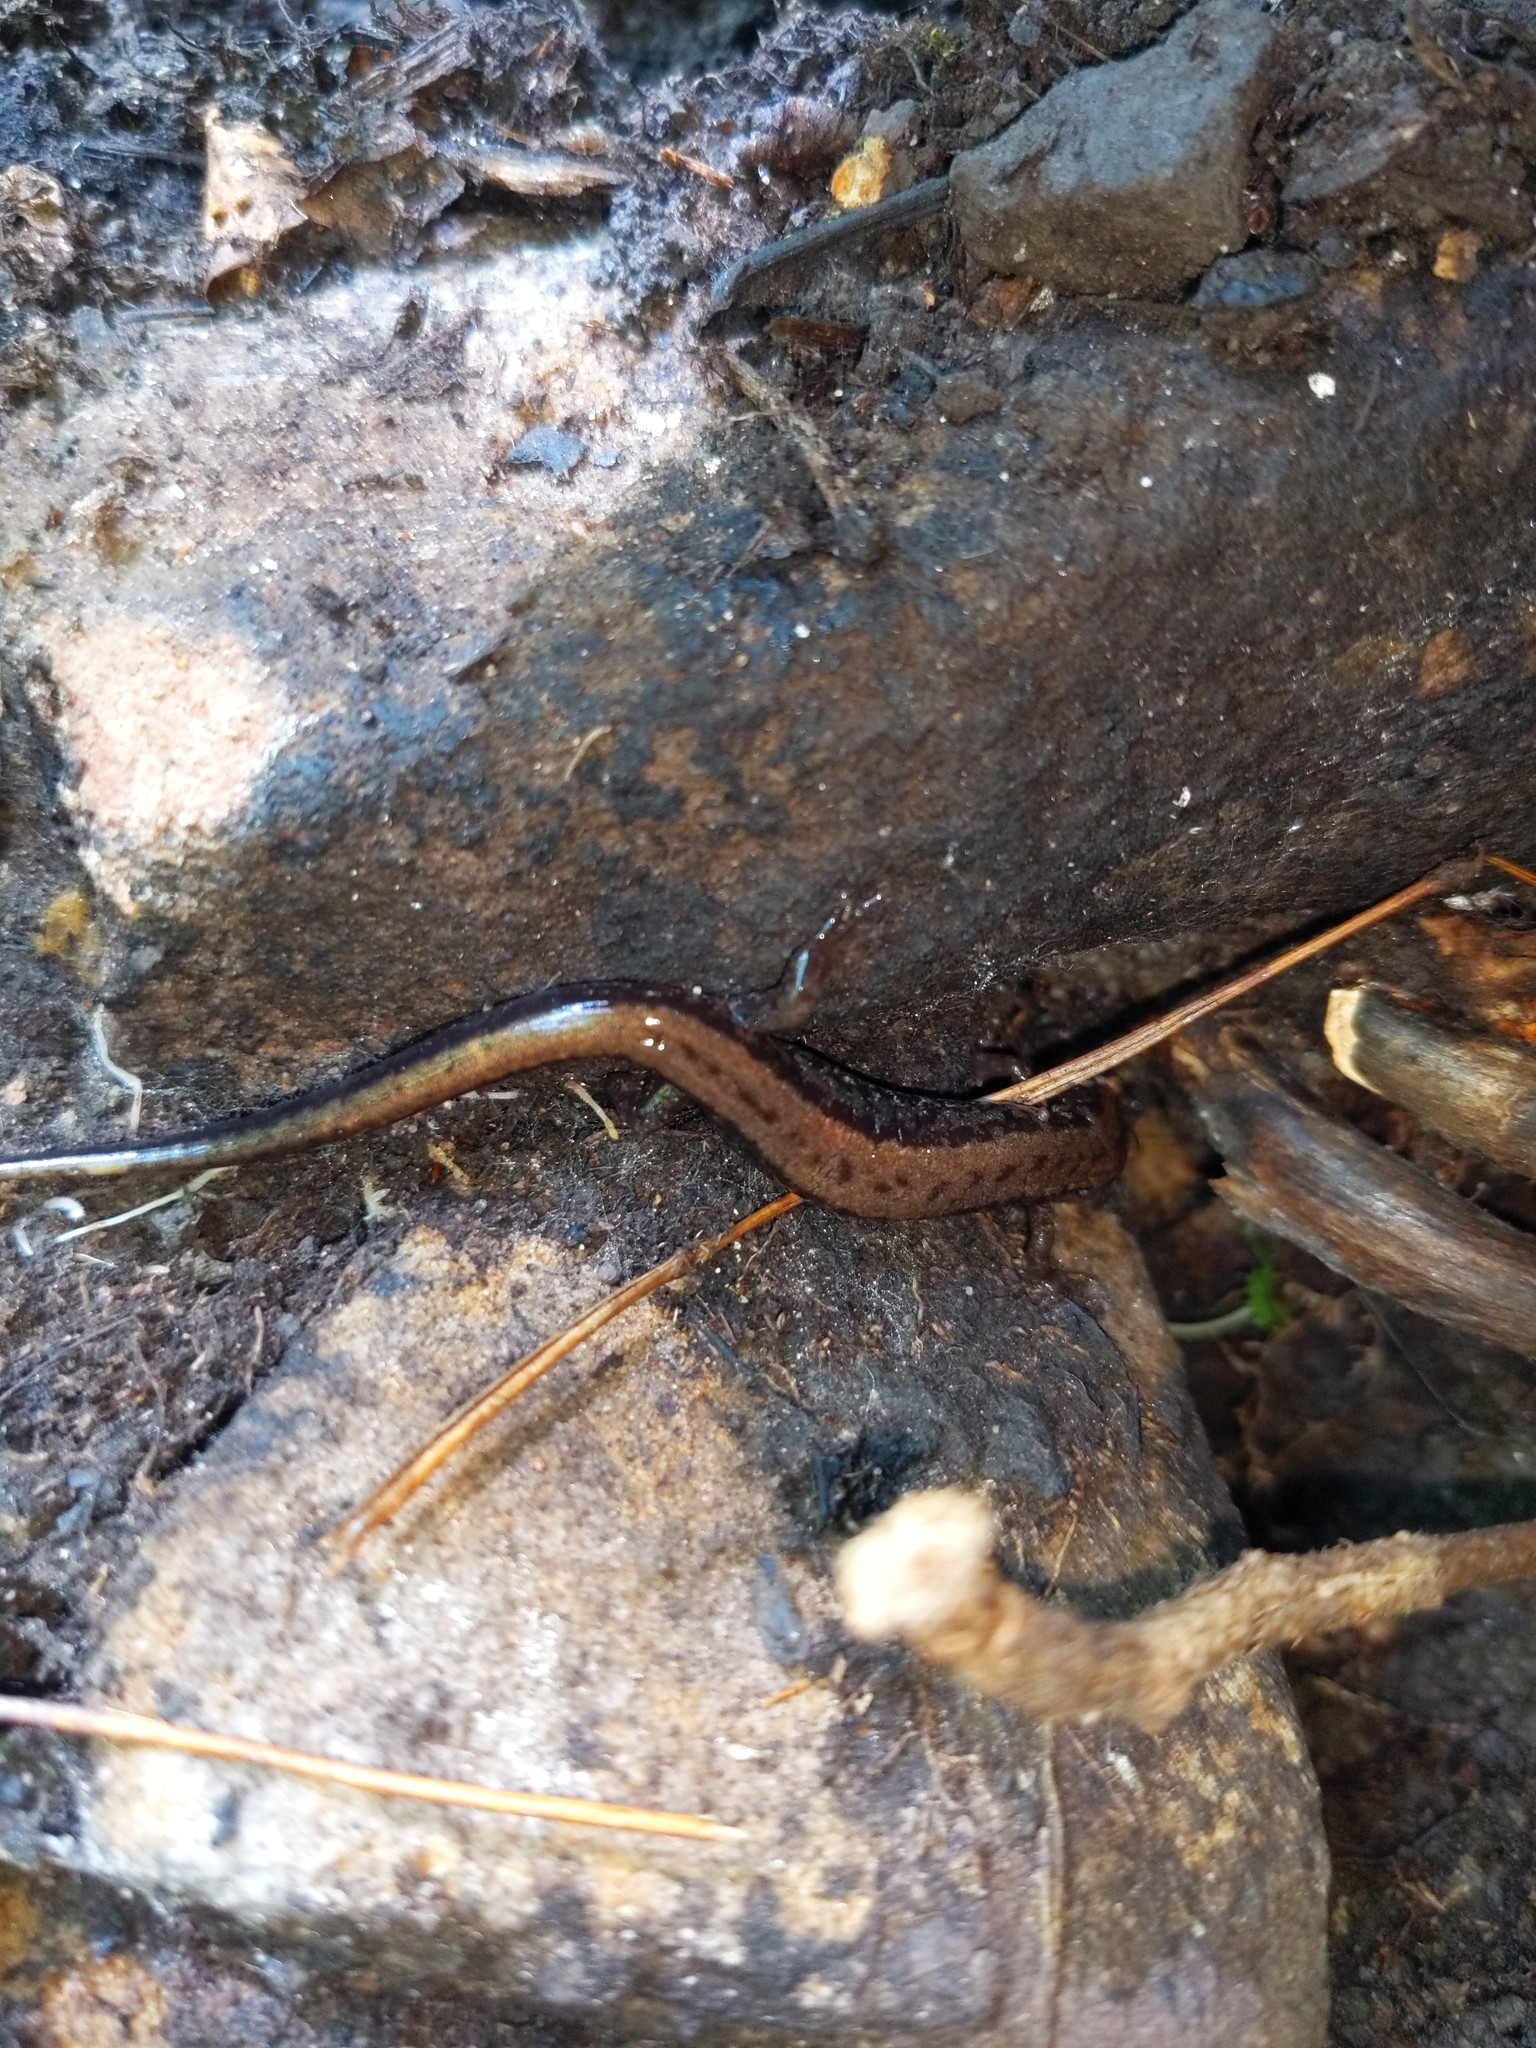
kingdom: Animalia
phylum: Chordata
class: Amphibia
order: Caudata
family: Plethodontidae
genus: Desmognathus
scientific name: Desmognathus ochrophaeus
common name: Allegheny mountain dusky salamander
